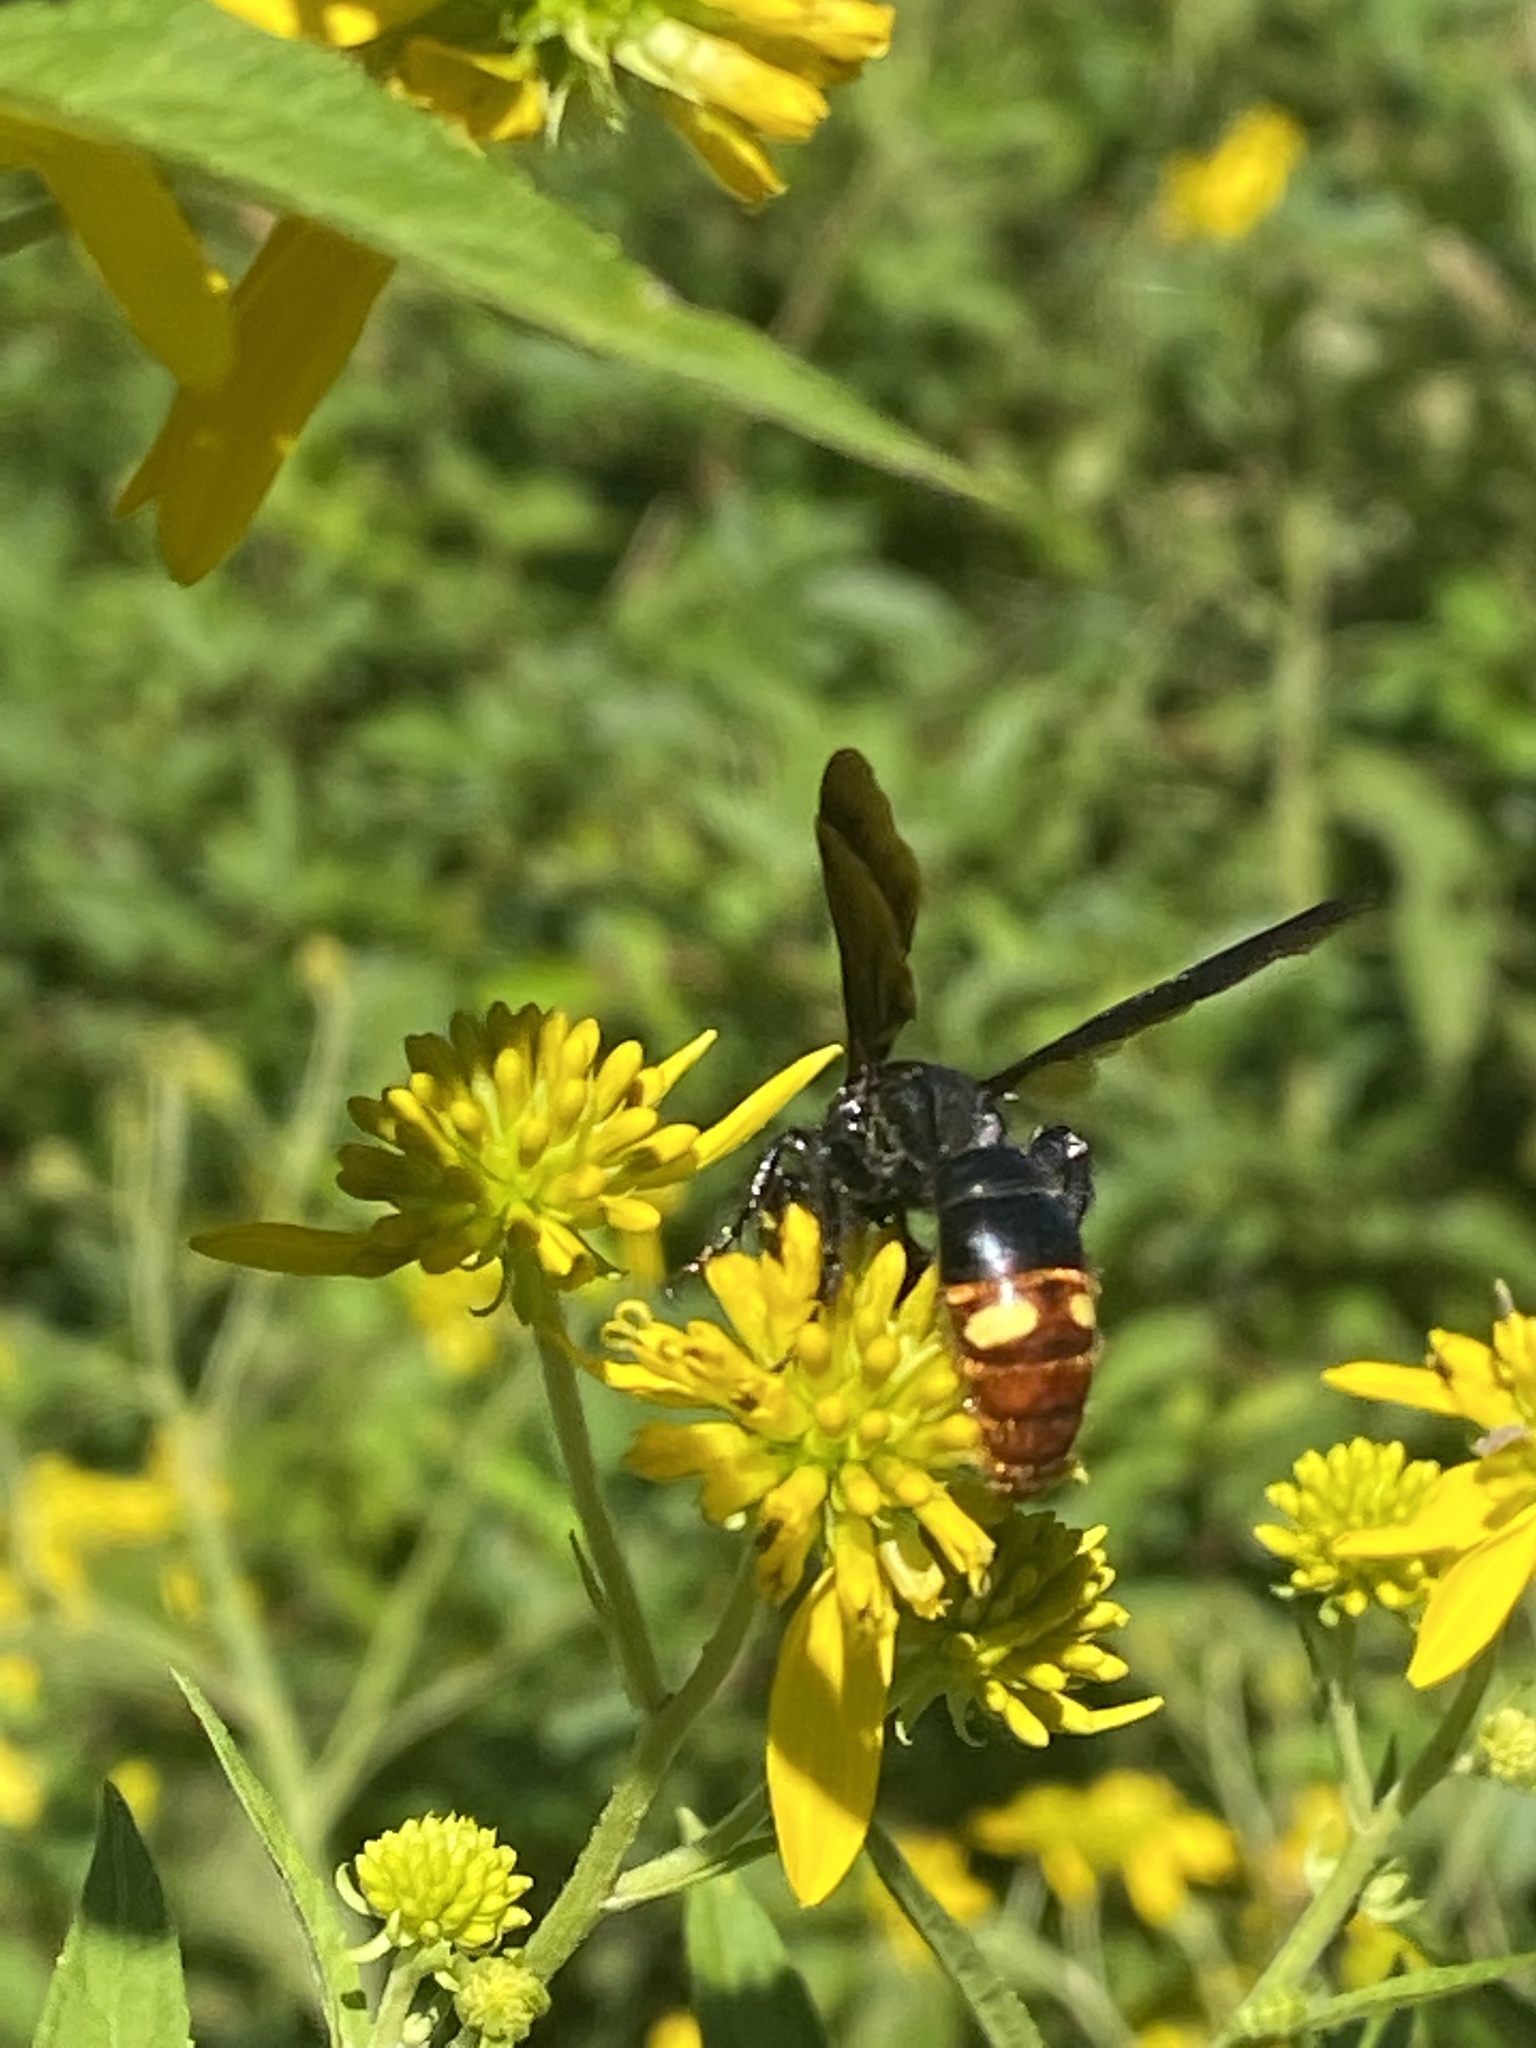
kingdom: Animalia
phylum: Arthropoda
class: Insecta
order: Hymenoptera
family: Scoliidae
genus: Scolia
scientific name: Scolia dubia
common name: Blue-winged scoliid wasp
